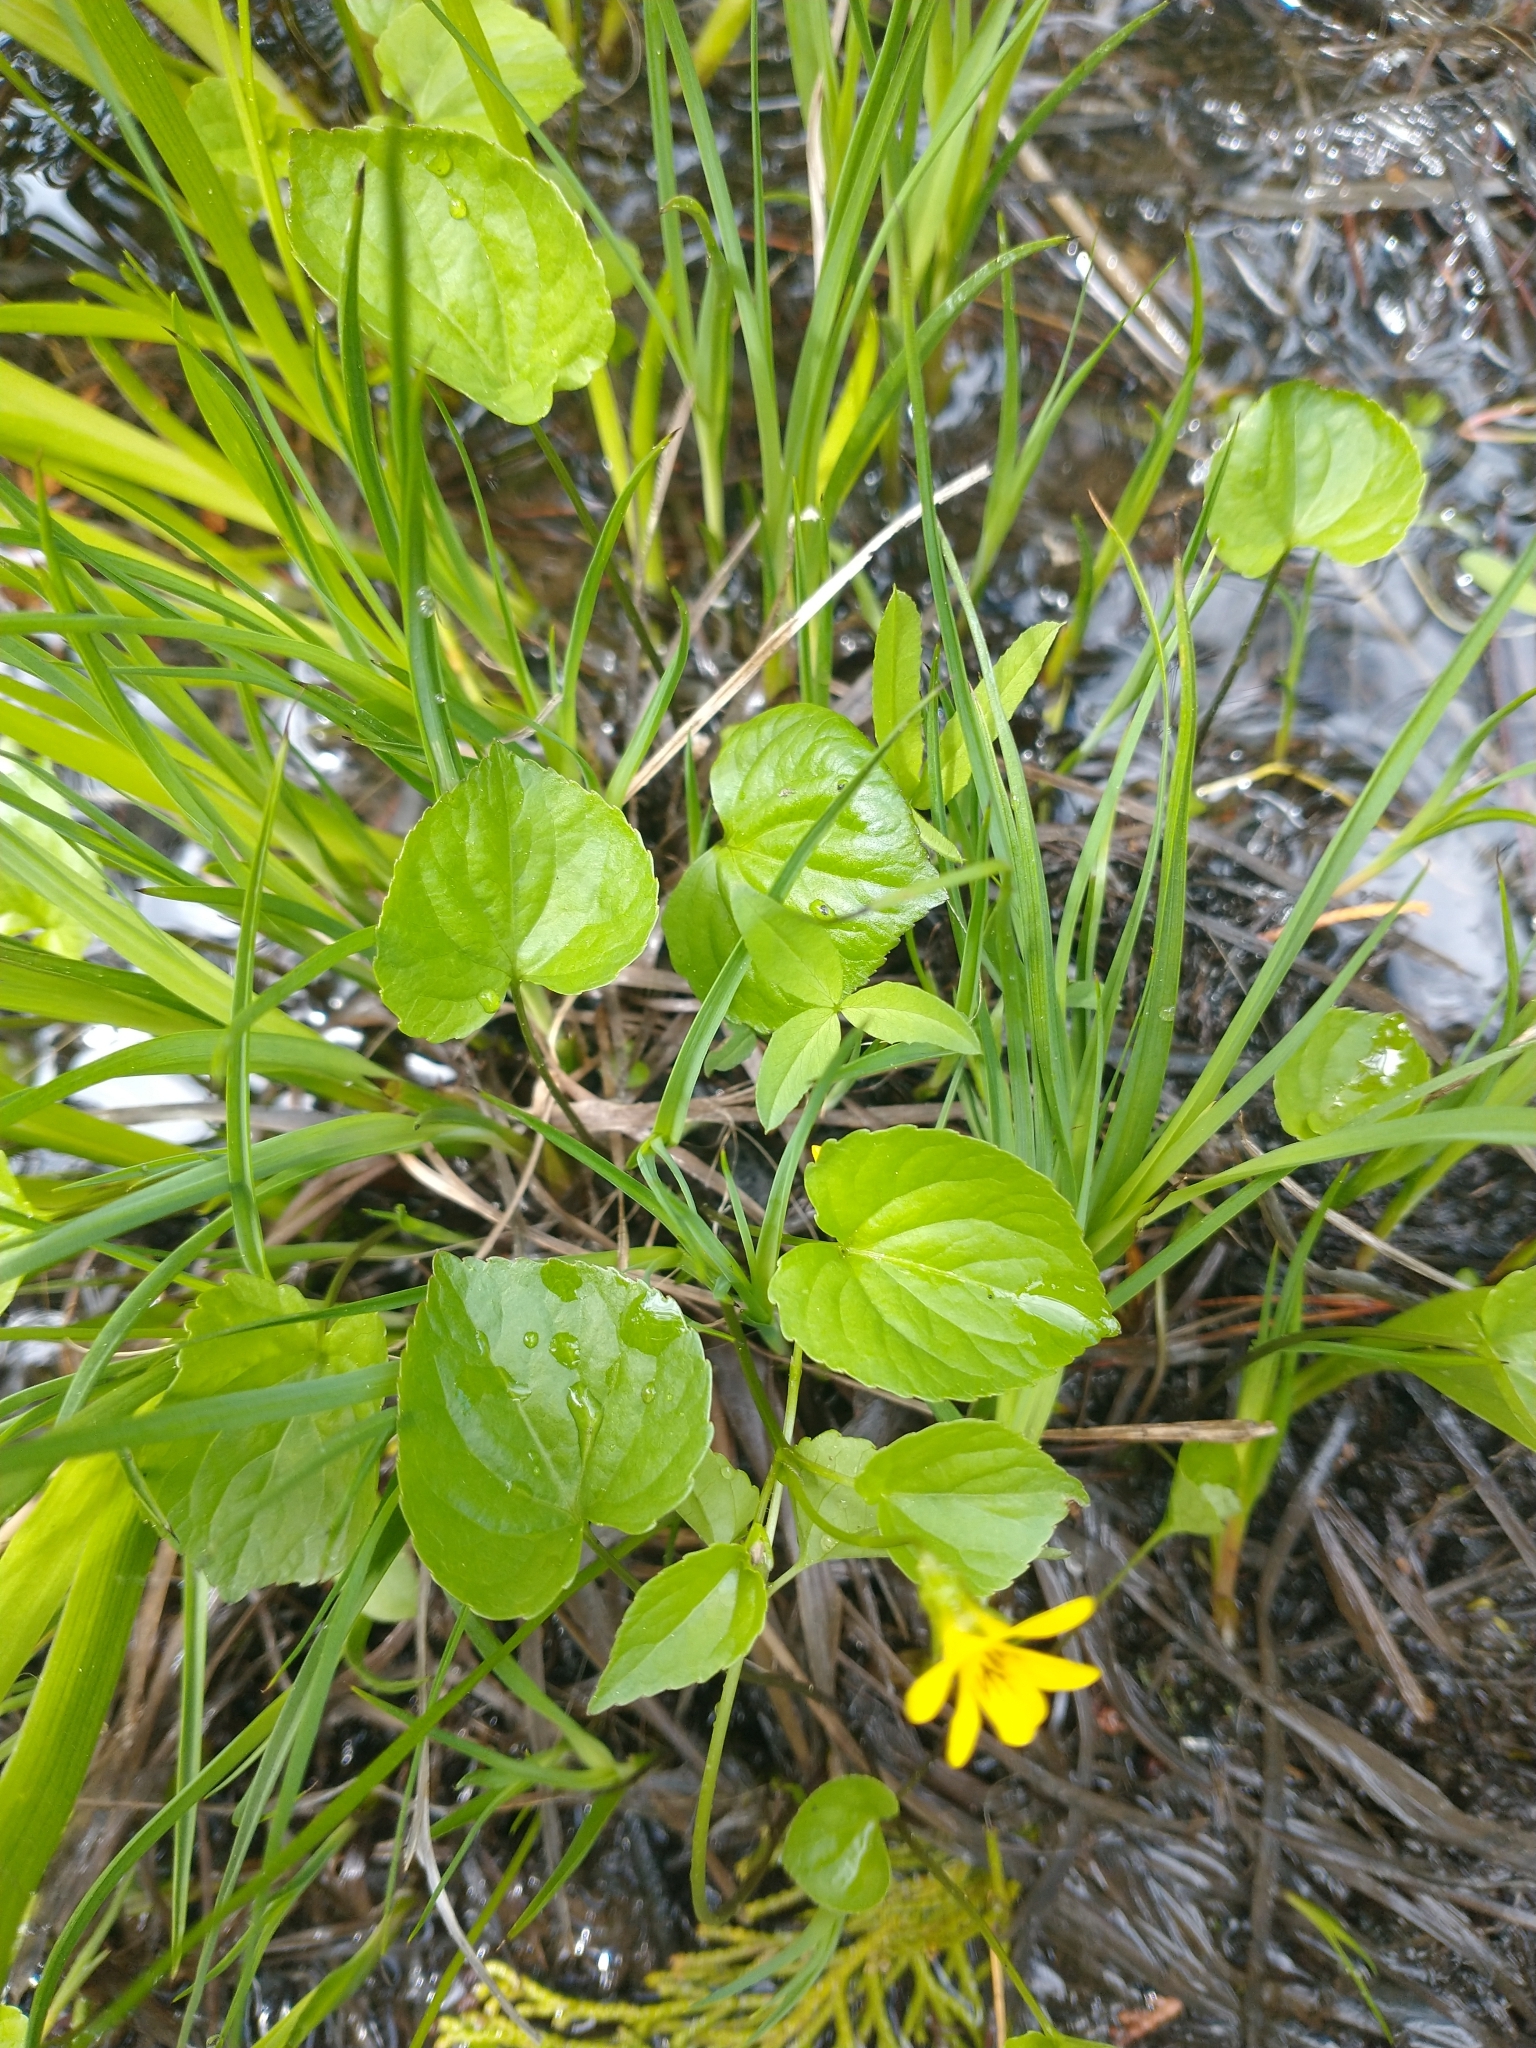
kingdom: Plantae
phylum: Tracheophyta
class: Magnoliopsida
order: Malpighiales
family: Violaceae
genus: Viola
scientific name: Viola glabella
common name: Stream violet
